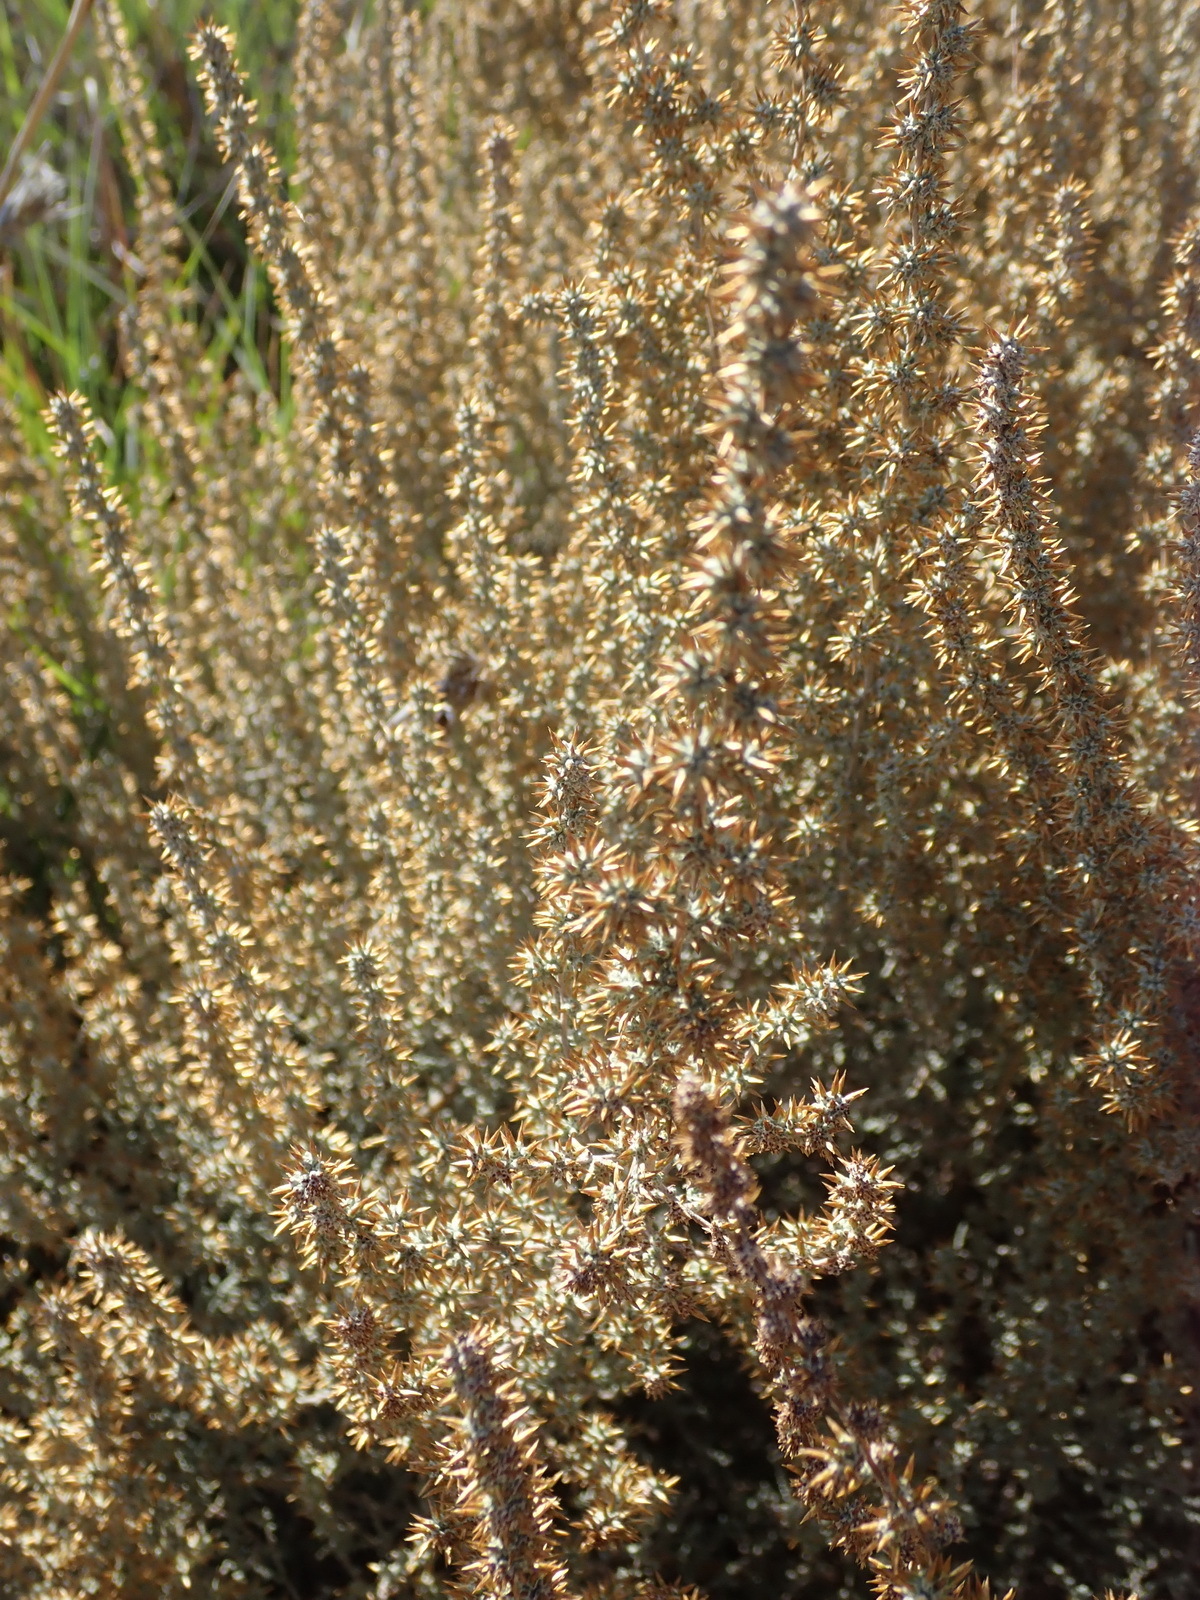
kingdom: Plantae
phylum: Tracheophyta
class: Magnoliopsida
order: Asterales
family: Asteraceae
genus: Seriphium
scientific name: Seriphium plumosum
